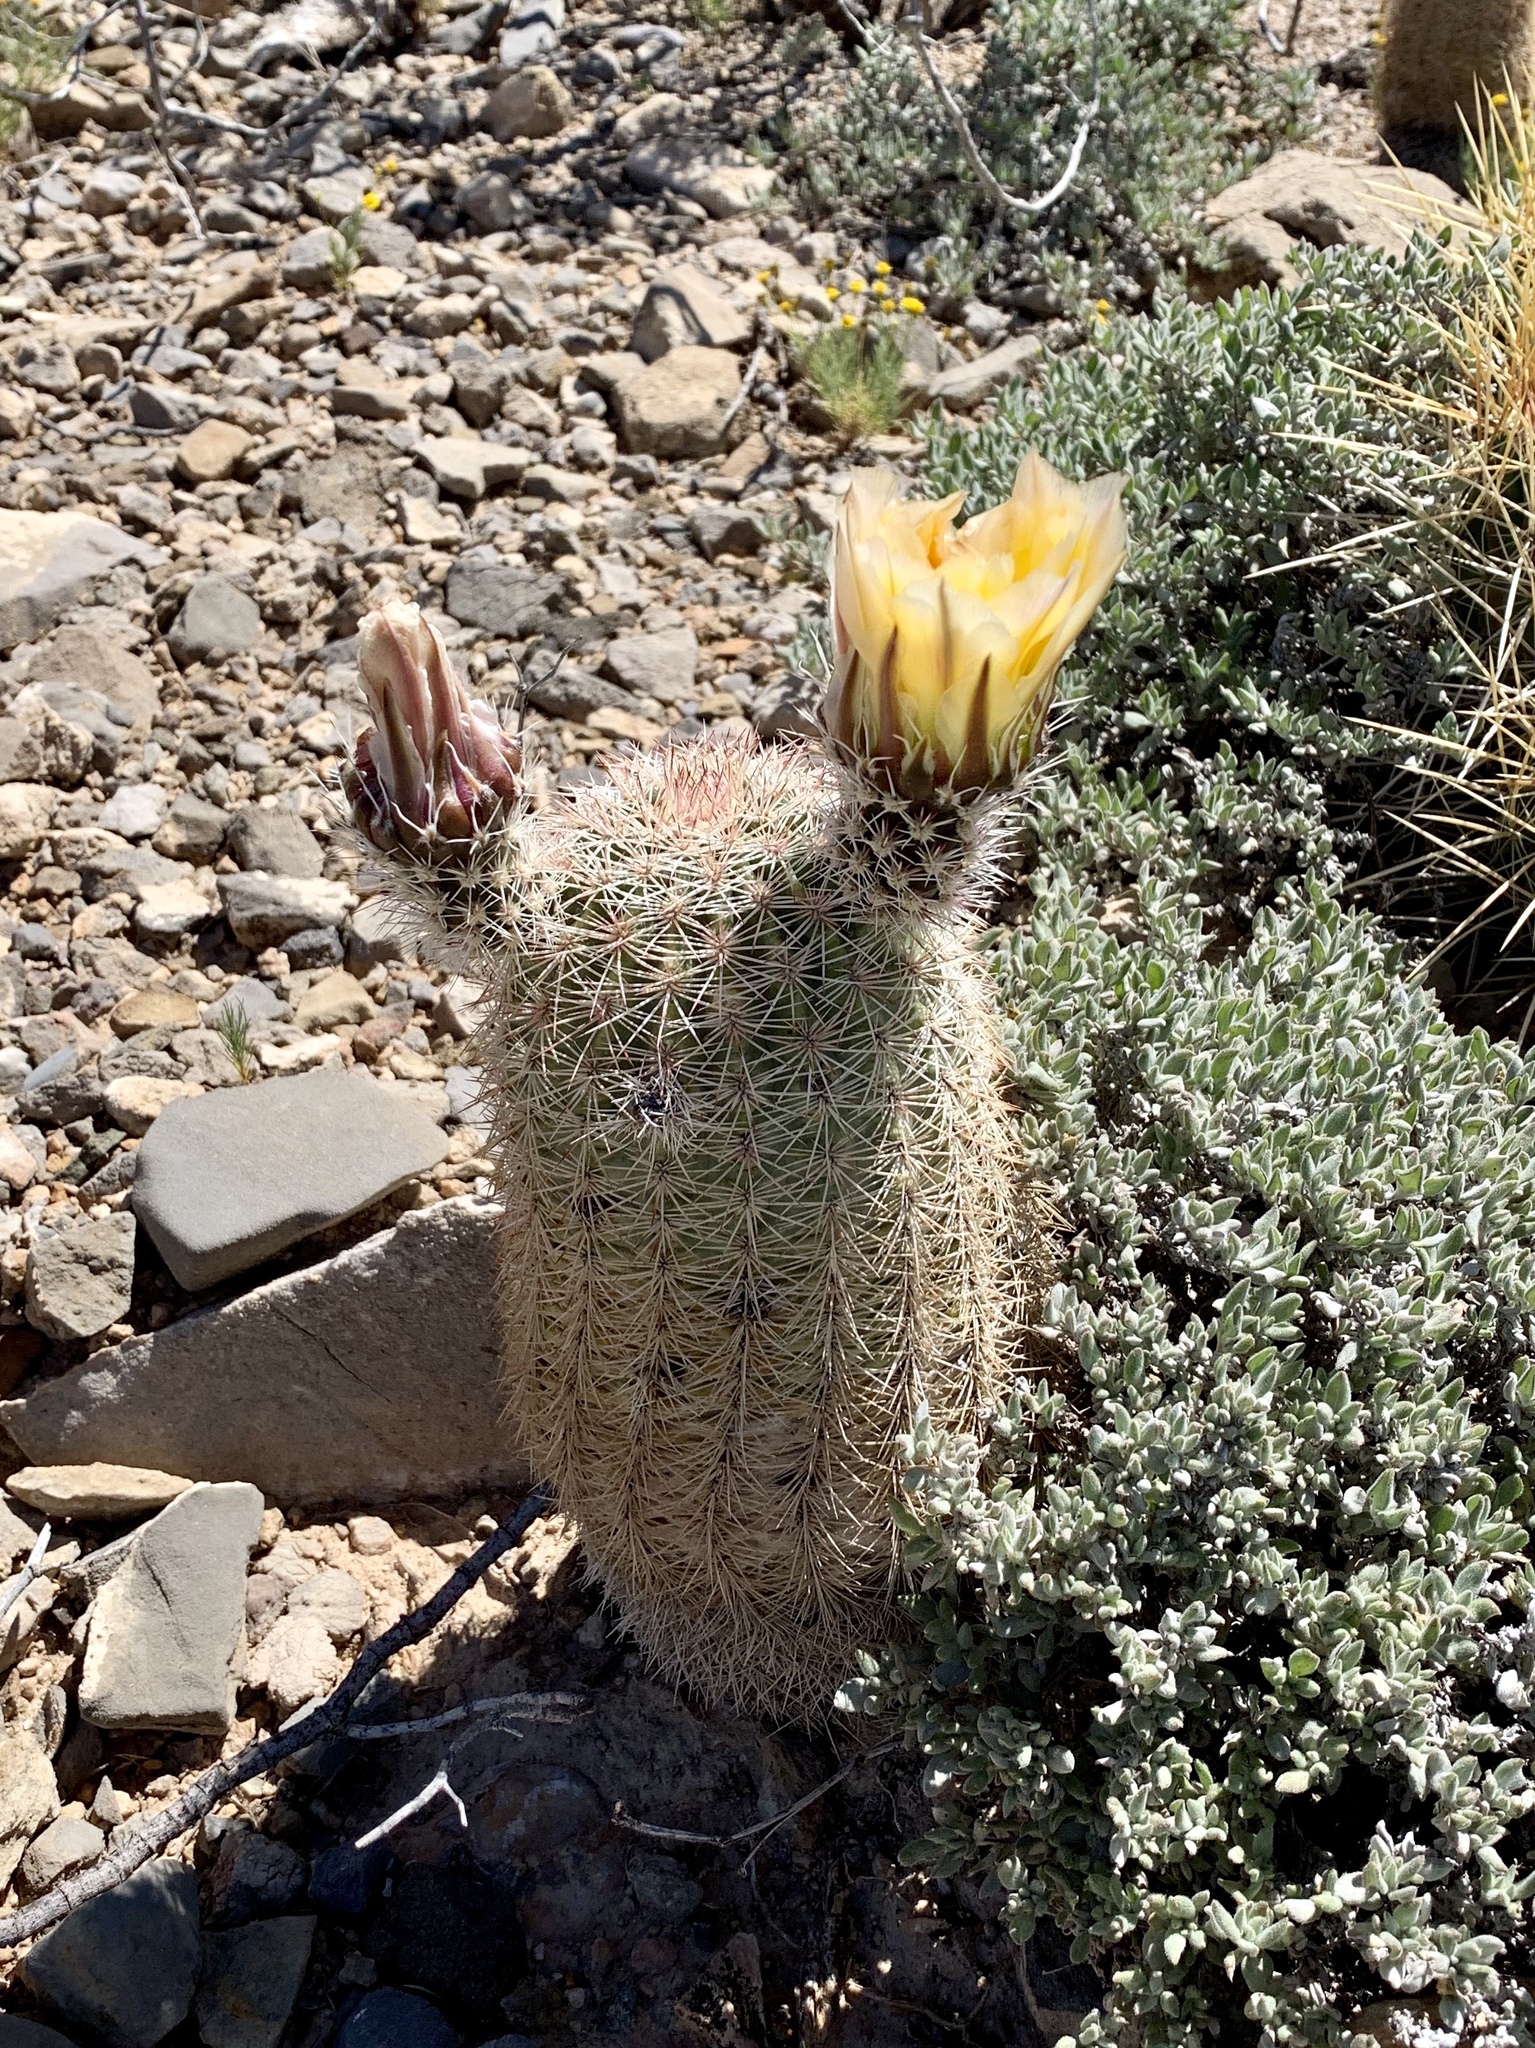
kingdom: Plantae
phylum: Tracheophyta
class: Magnoliopsida
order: Caryophyllales
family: Cactaceae
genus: Echinocereus
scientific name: Echinocereus dasyacanthus
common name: Spiny hedgehog cactus
